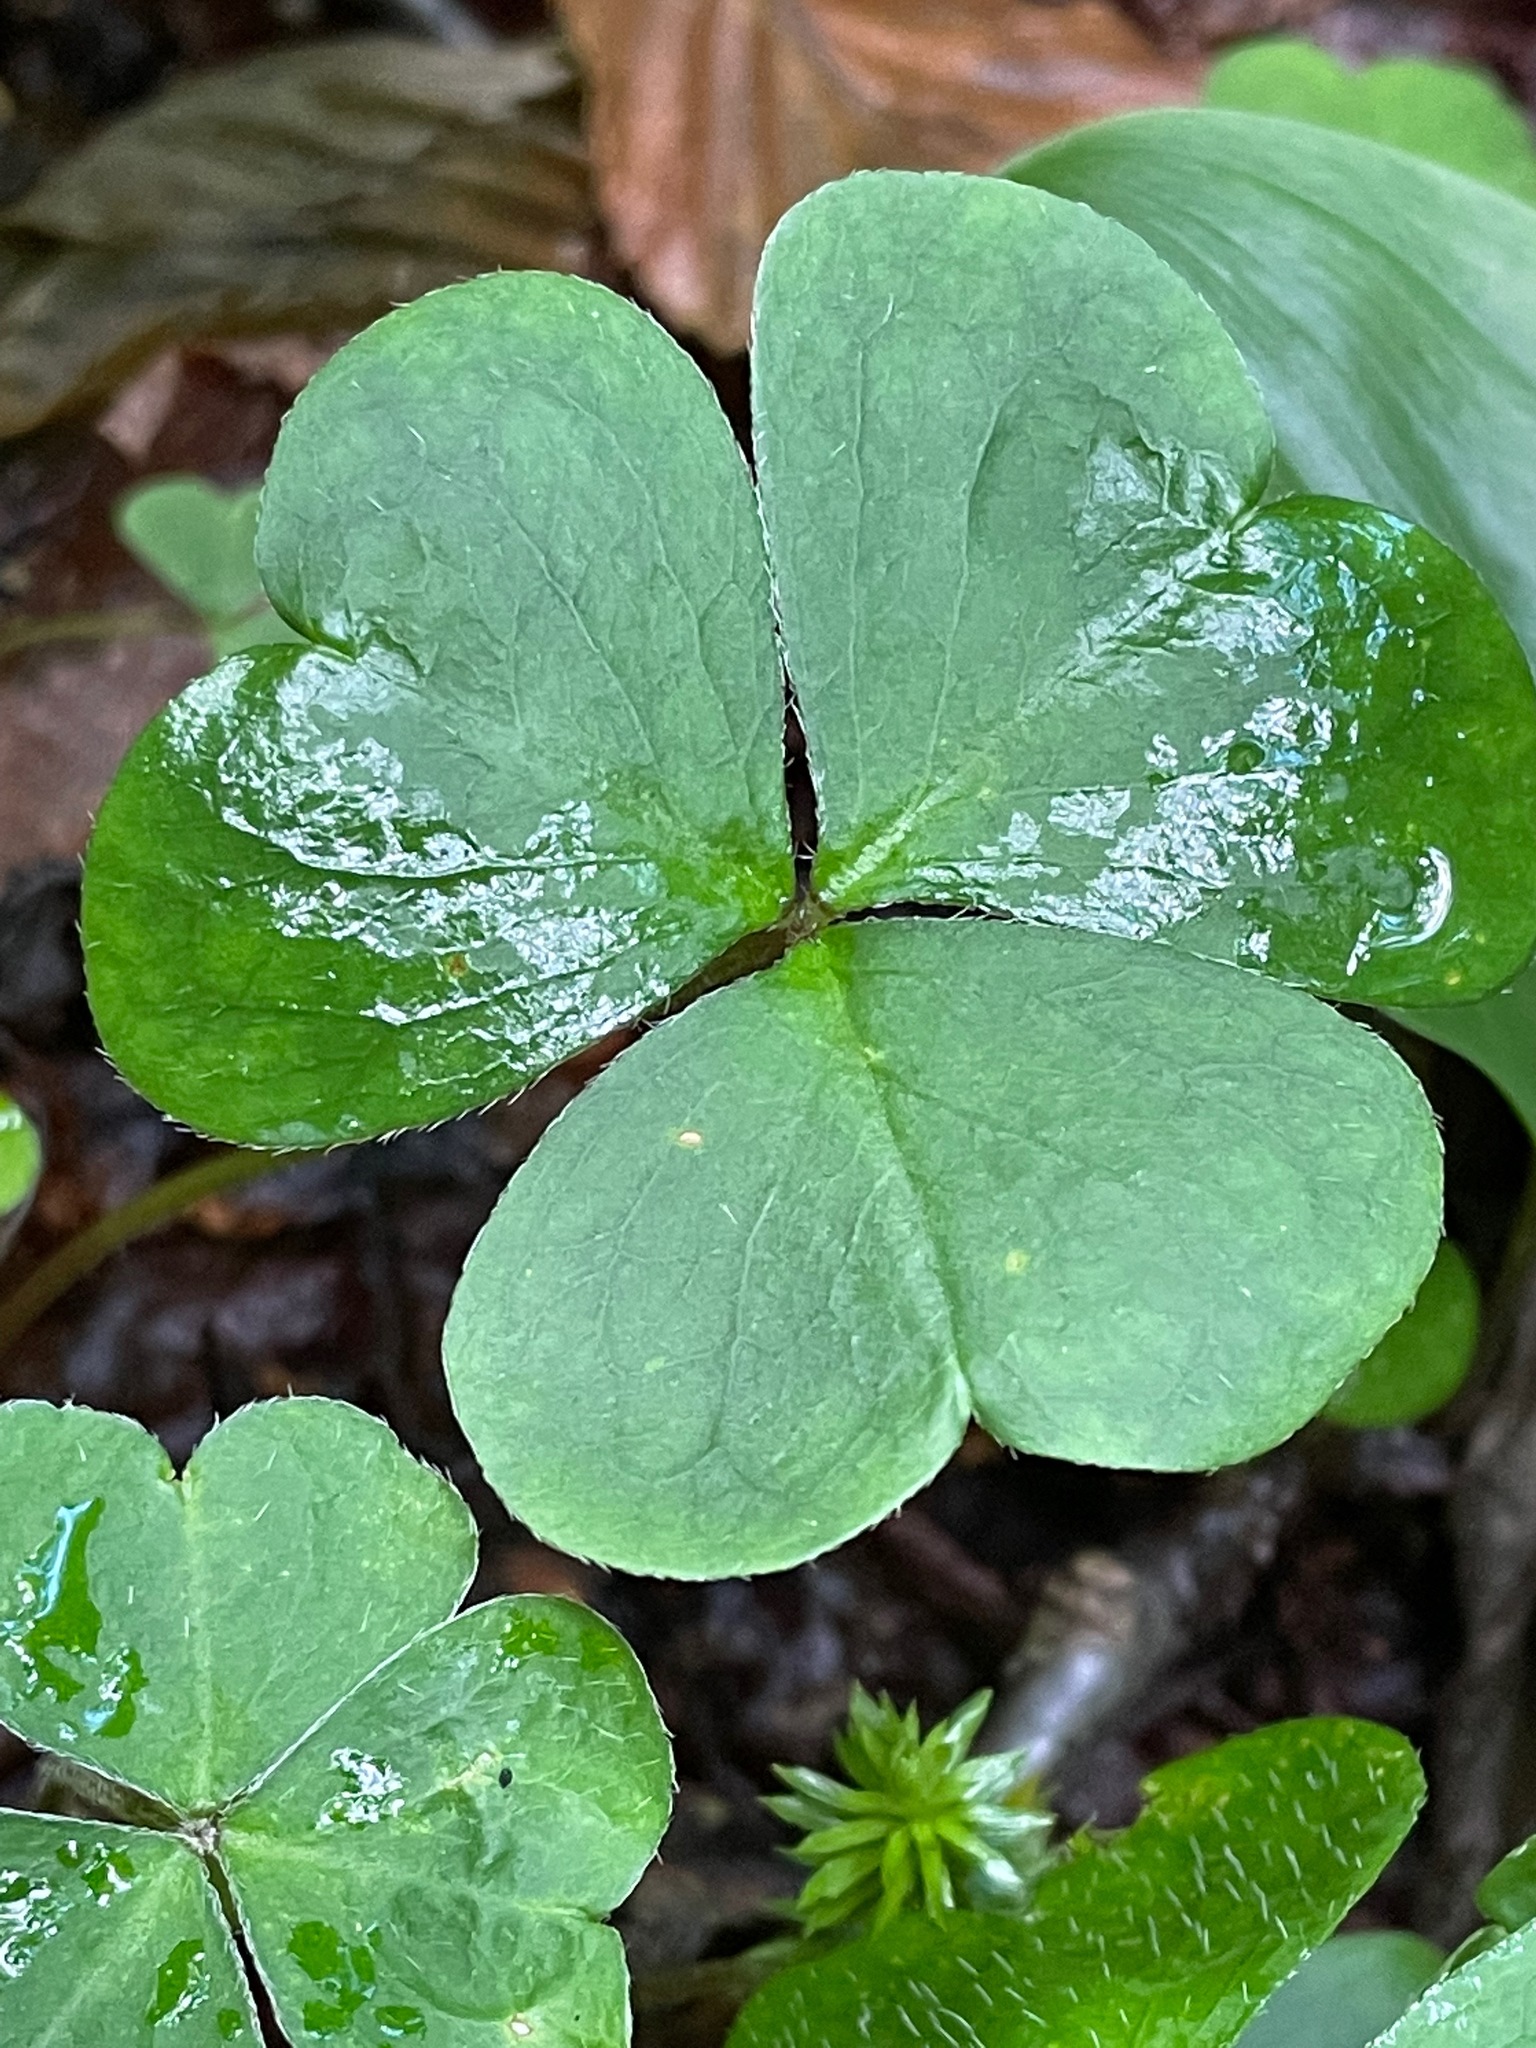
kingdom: Plantae
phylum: Tracheophyta
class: Magnoliopsida
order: Oxalidales
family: Oxalidaceae
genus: Oxalis
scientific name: Oxalis montana
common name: American wood-sorrel
